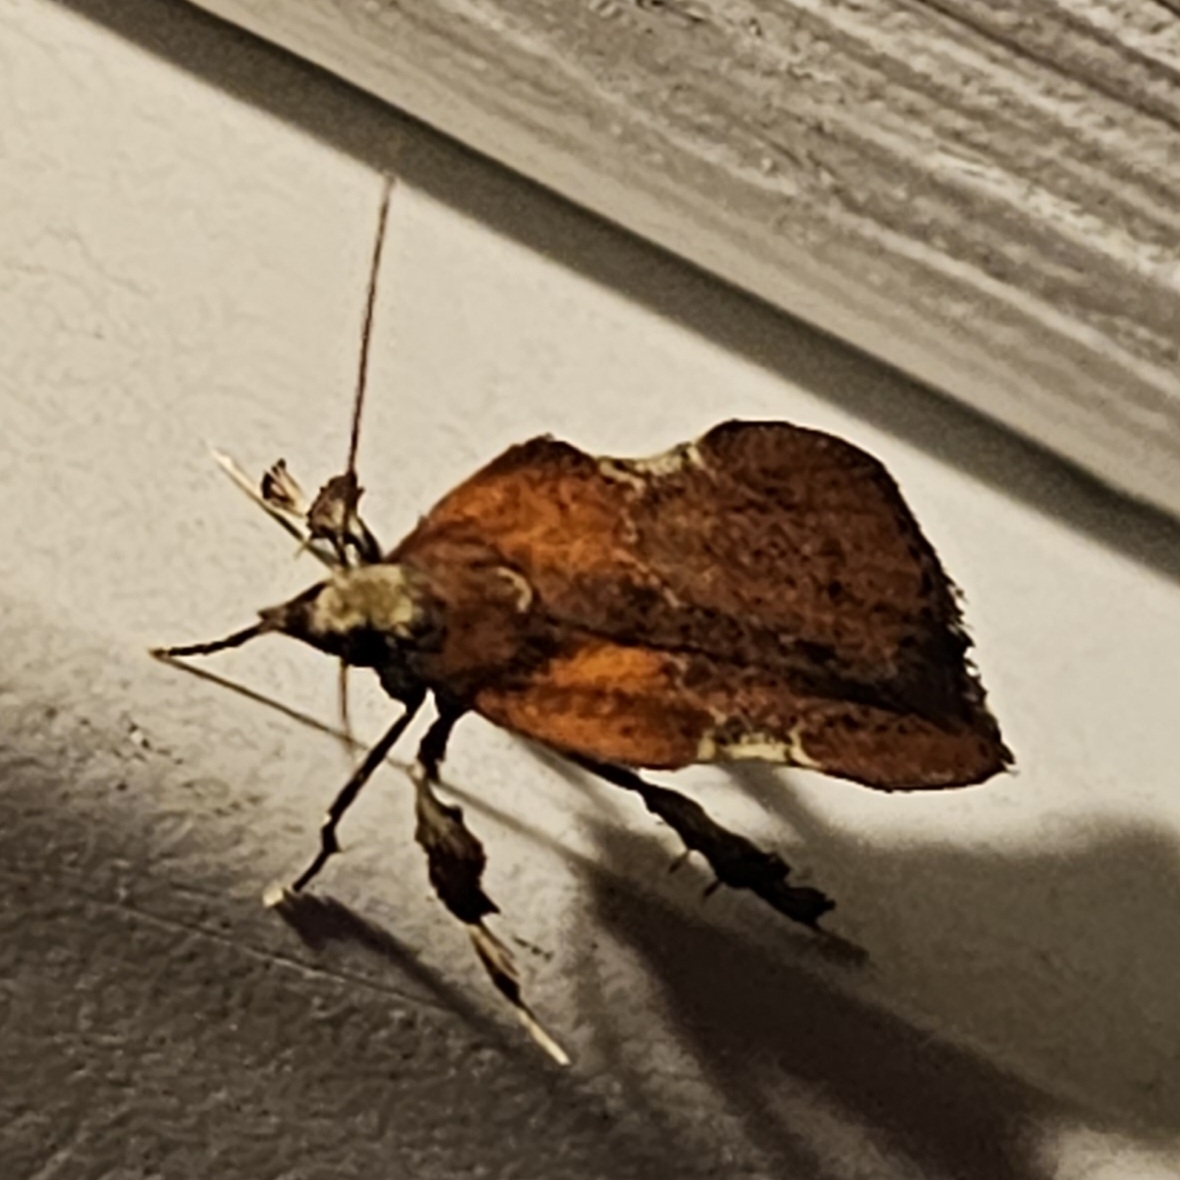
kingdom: Animalia
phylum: Arthropoda
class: Insecta
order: Lepidoptera
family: Pyralidae
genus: Galasa
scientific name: Galasa nigrinodis
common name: Boxwood leaftier moth
